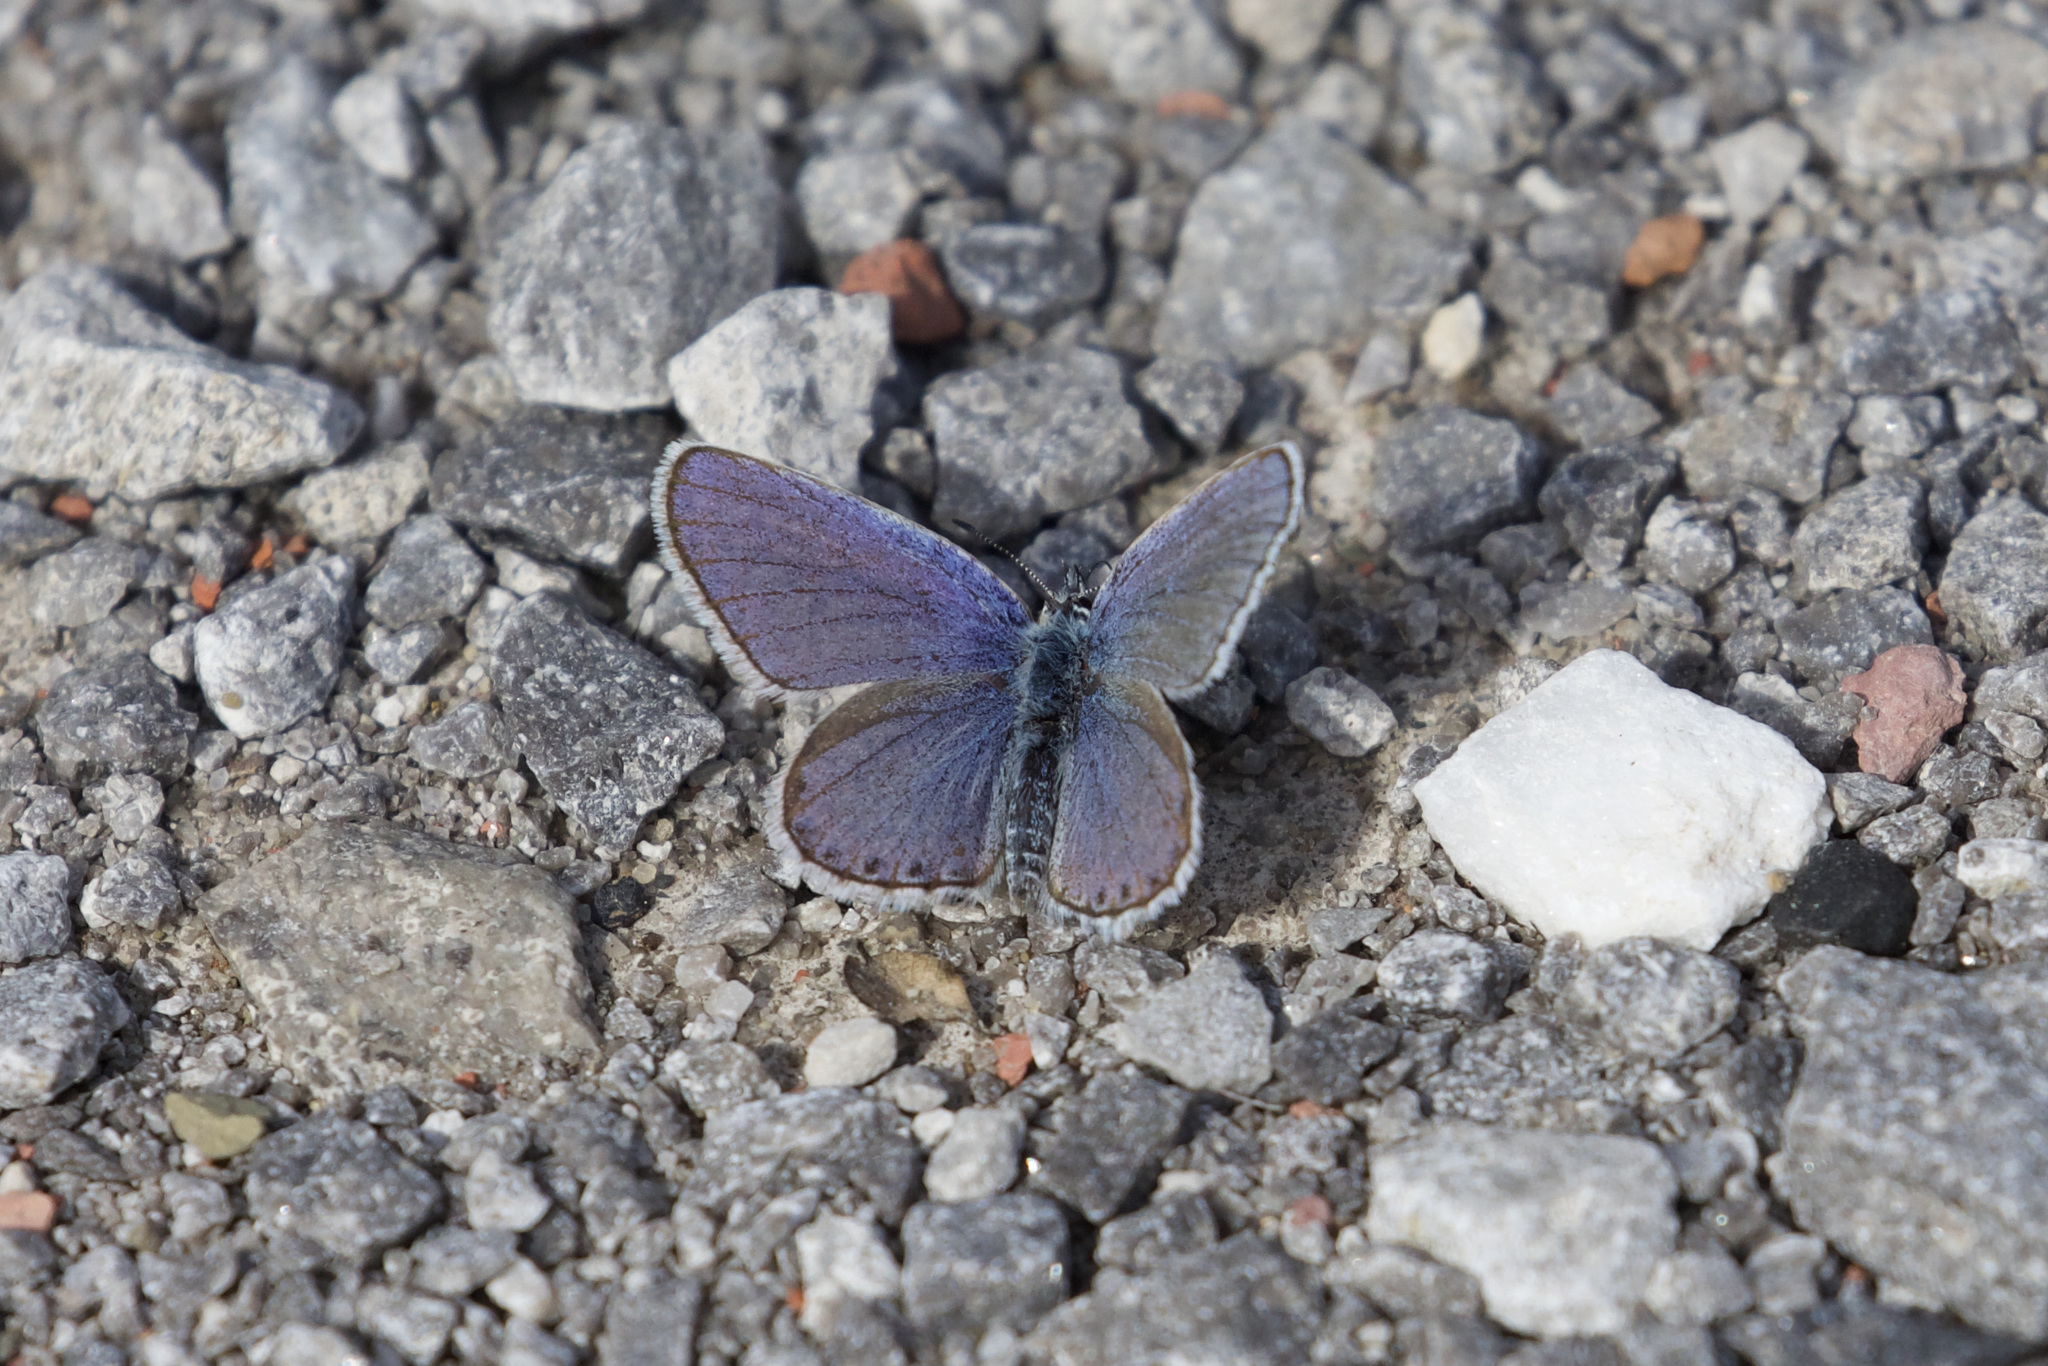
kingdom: Animalia
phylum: Arthropoda
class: Insecta
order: Lepidoptera
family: Lycaenidae
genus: Lycaeides
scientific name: Lycaeides melissa
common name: Melissa blue
